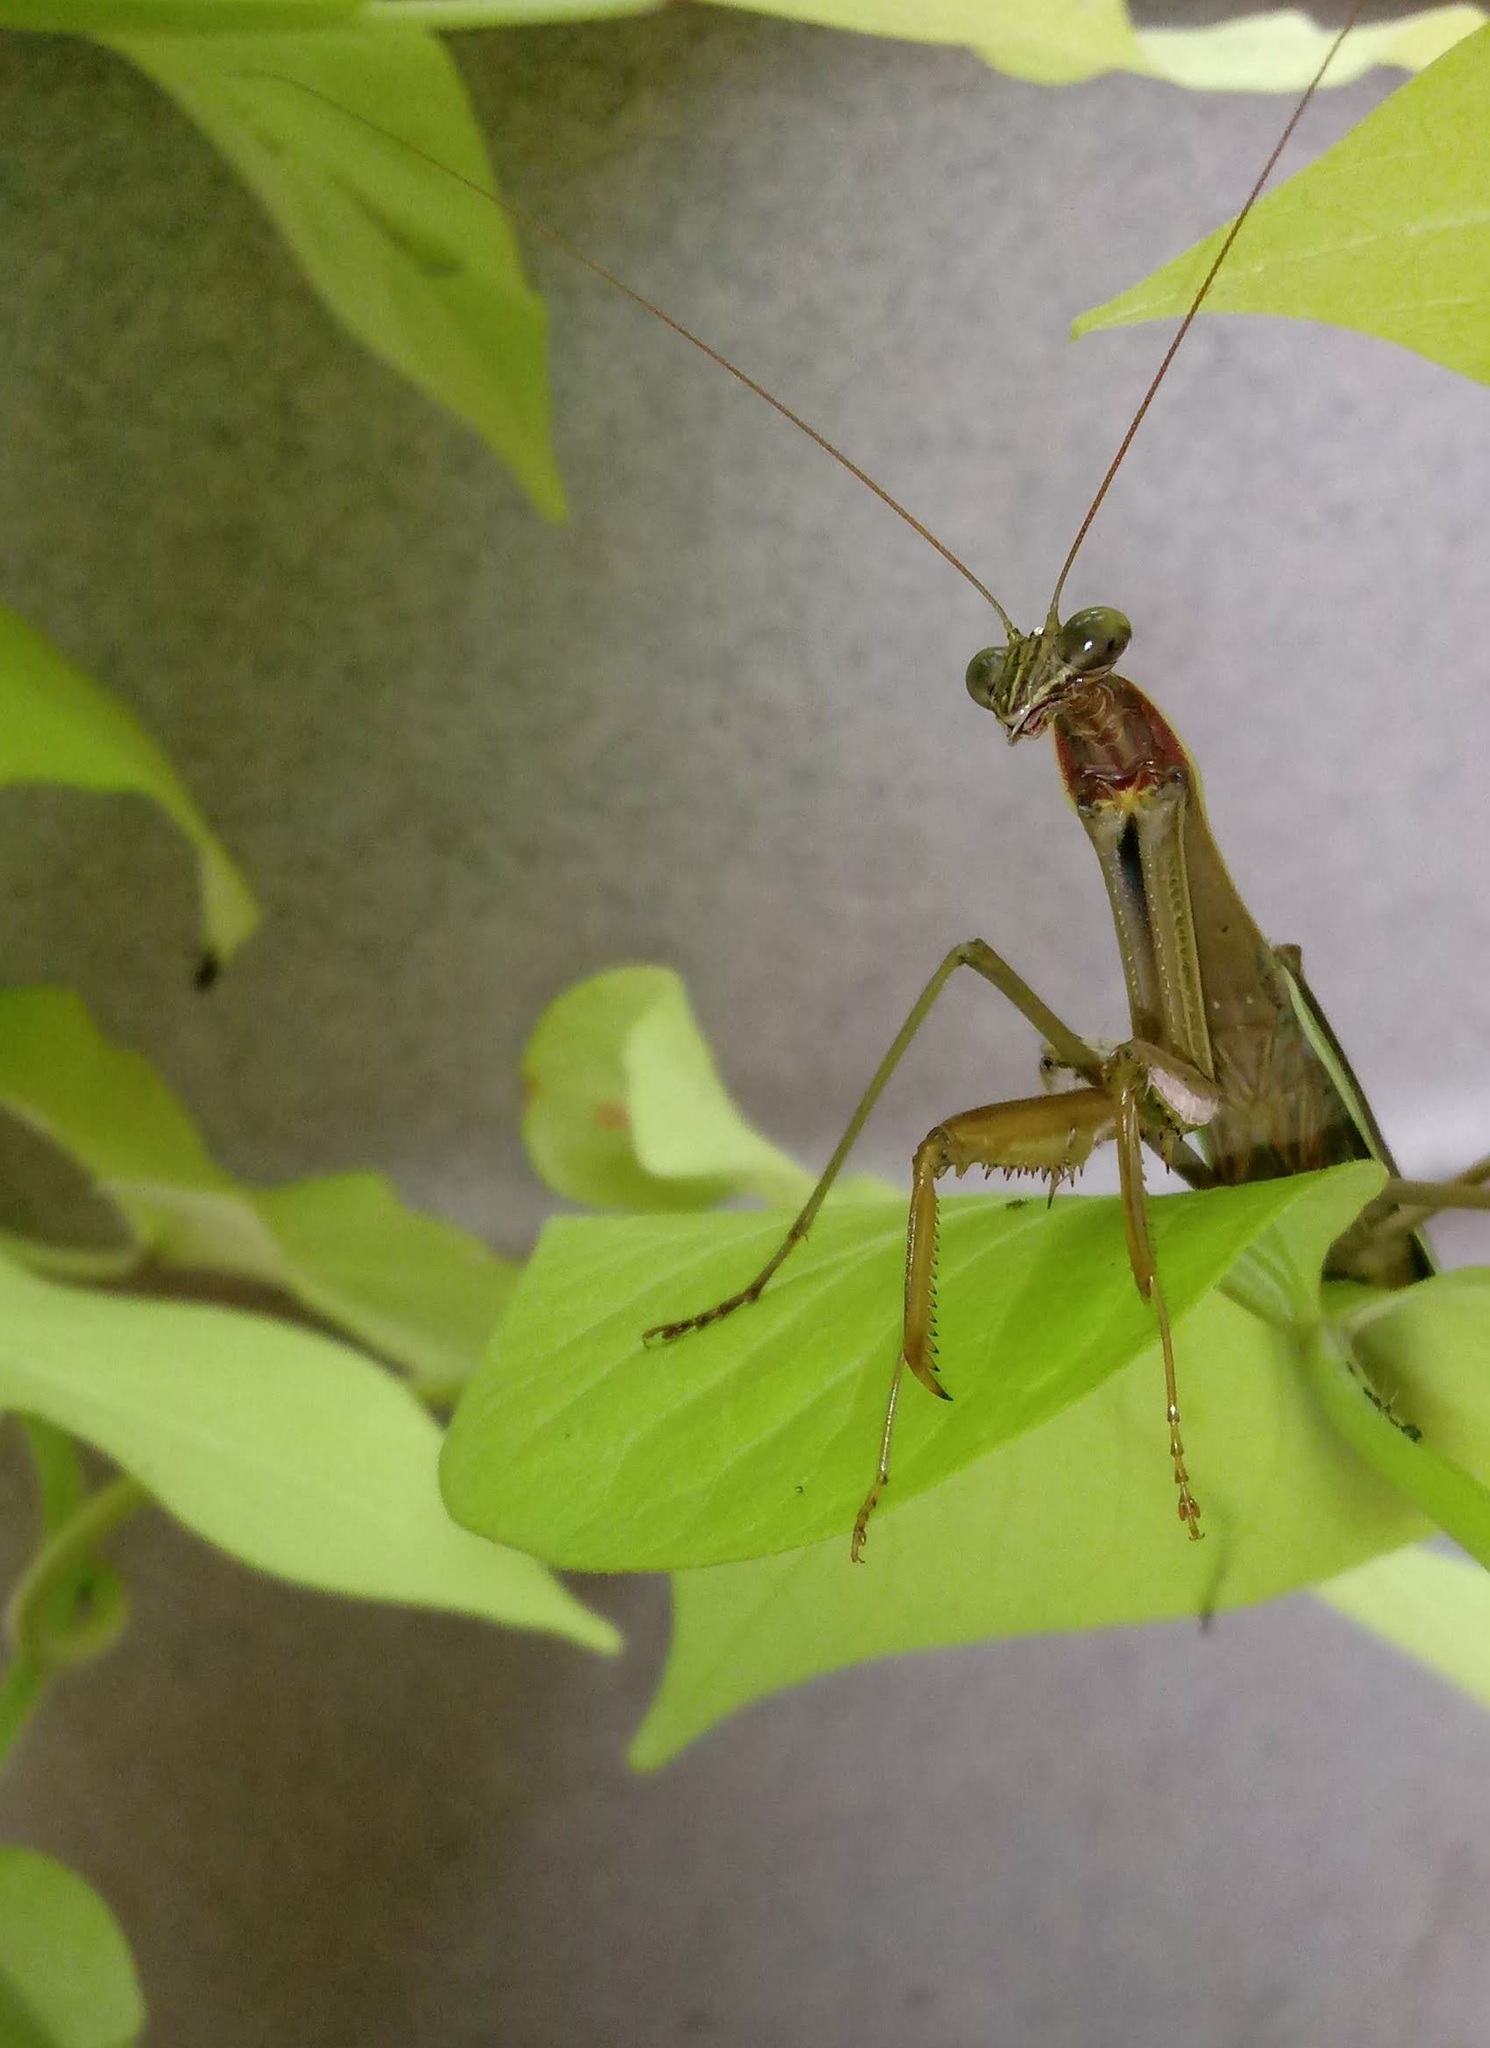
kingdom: Animalia
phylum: Arthropoda
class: Insecta
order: Mantodea
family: Mantidae
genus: Tenodera
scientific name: Tenodera sinensis
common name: Chinese mantis
